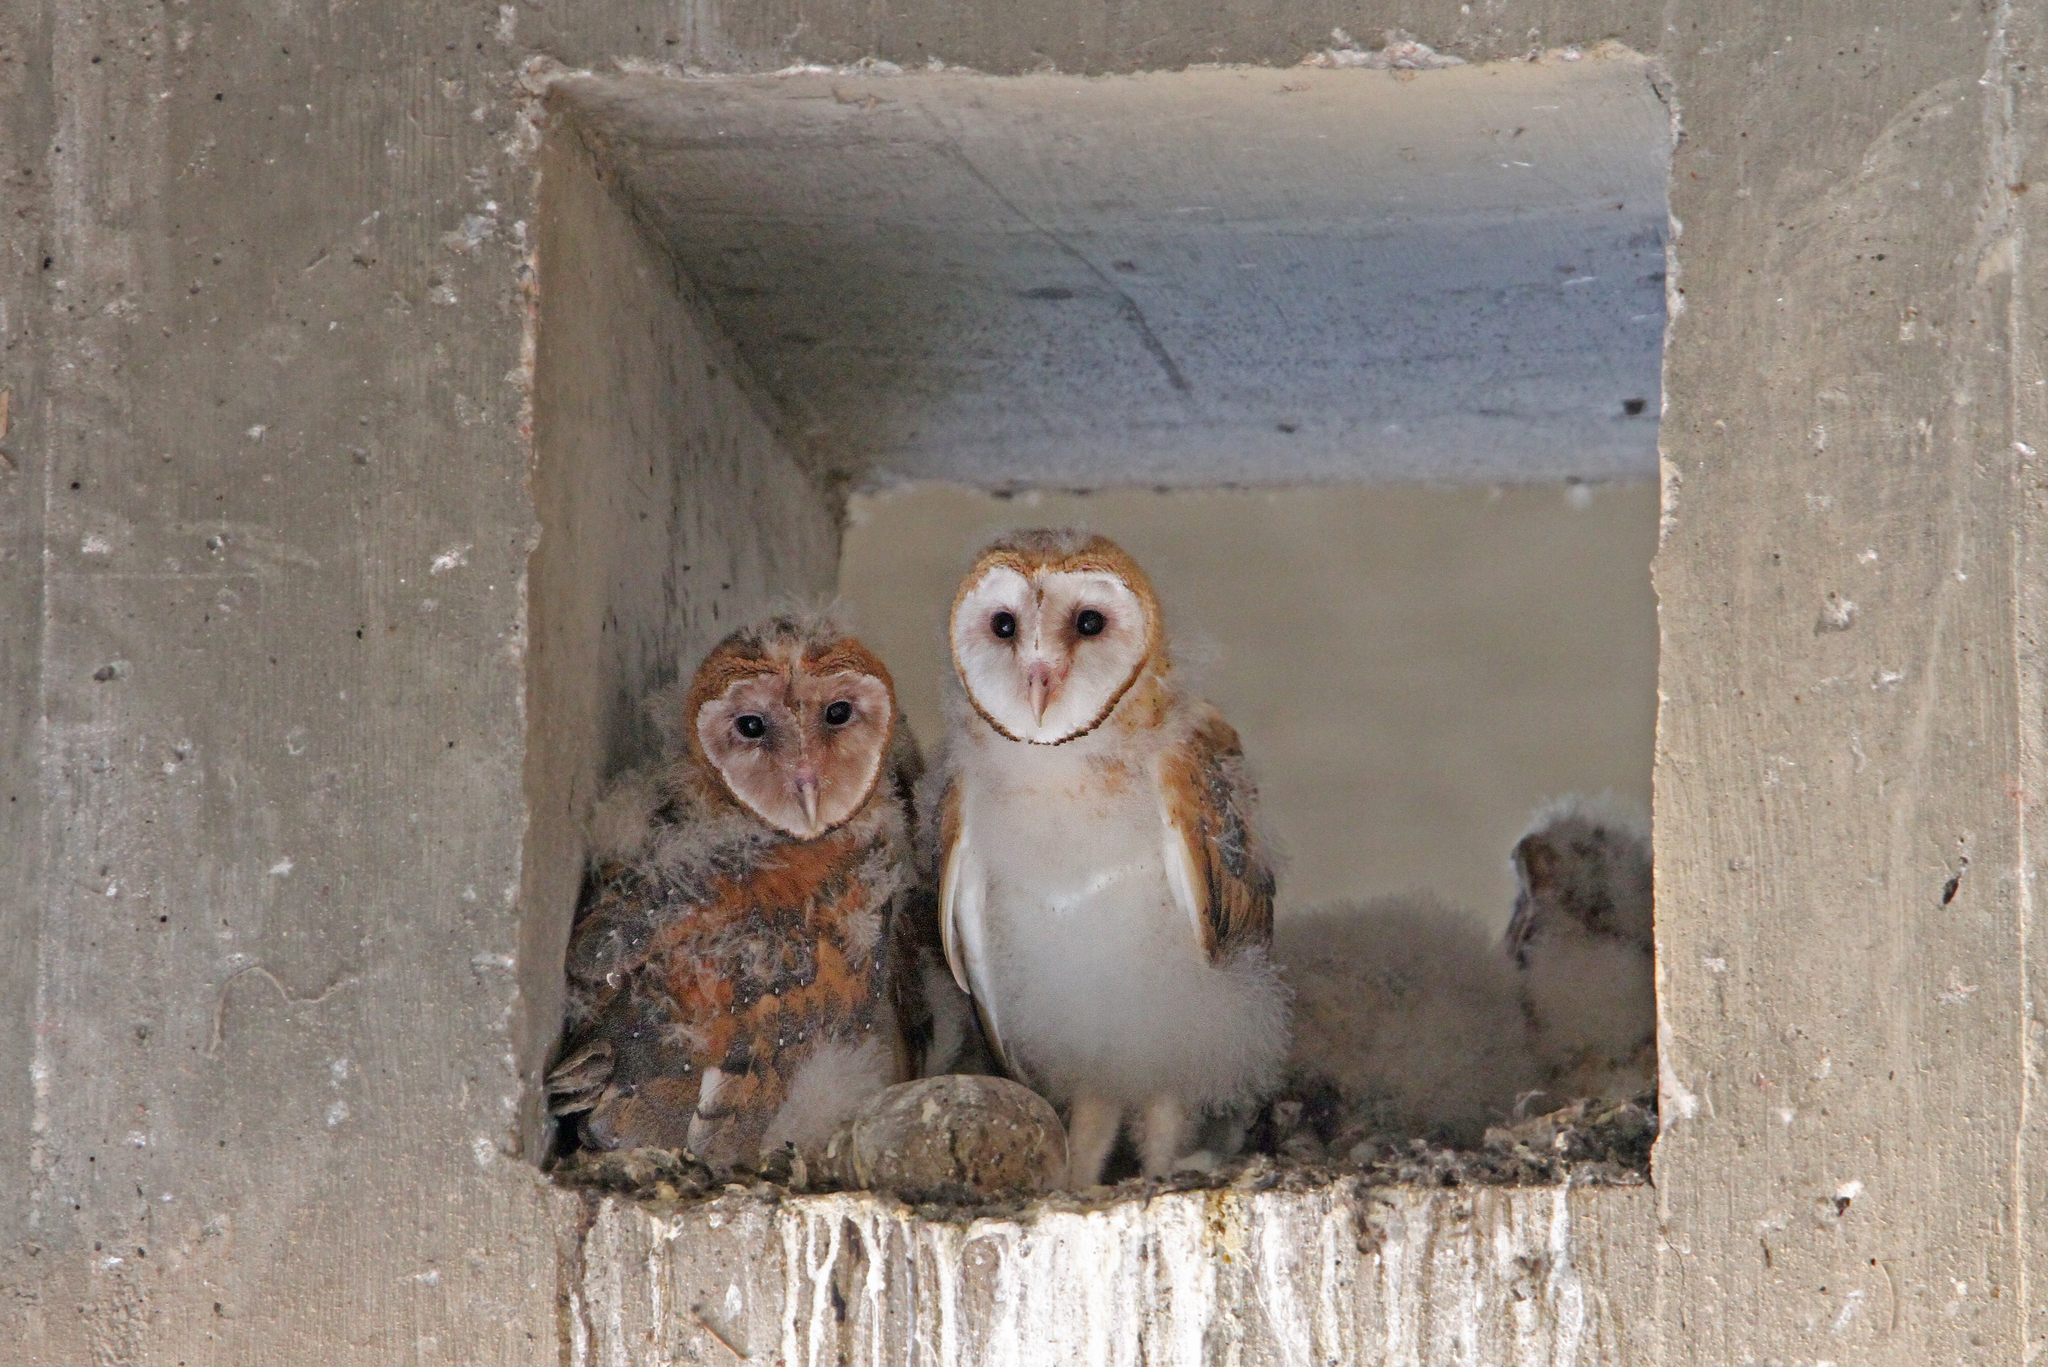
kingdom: Animalia
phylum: Chordata
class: Aves
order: Strigiformes
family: Tytonidae
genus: Tyto
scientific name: Tyto alba
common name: Barn owl
